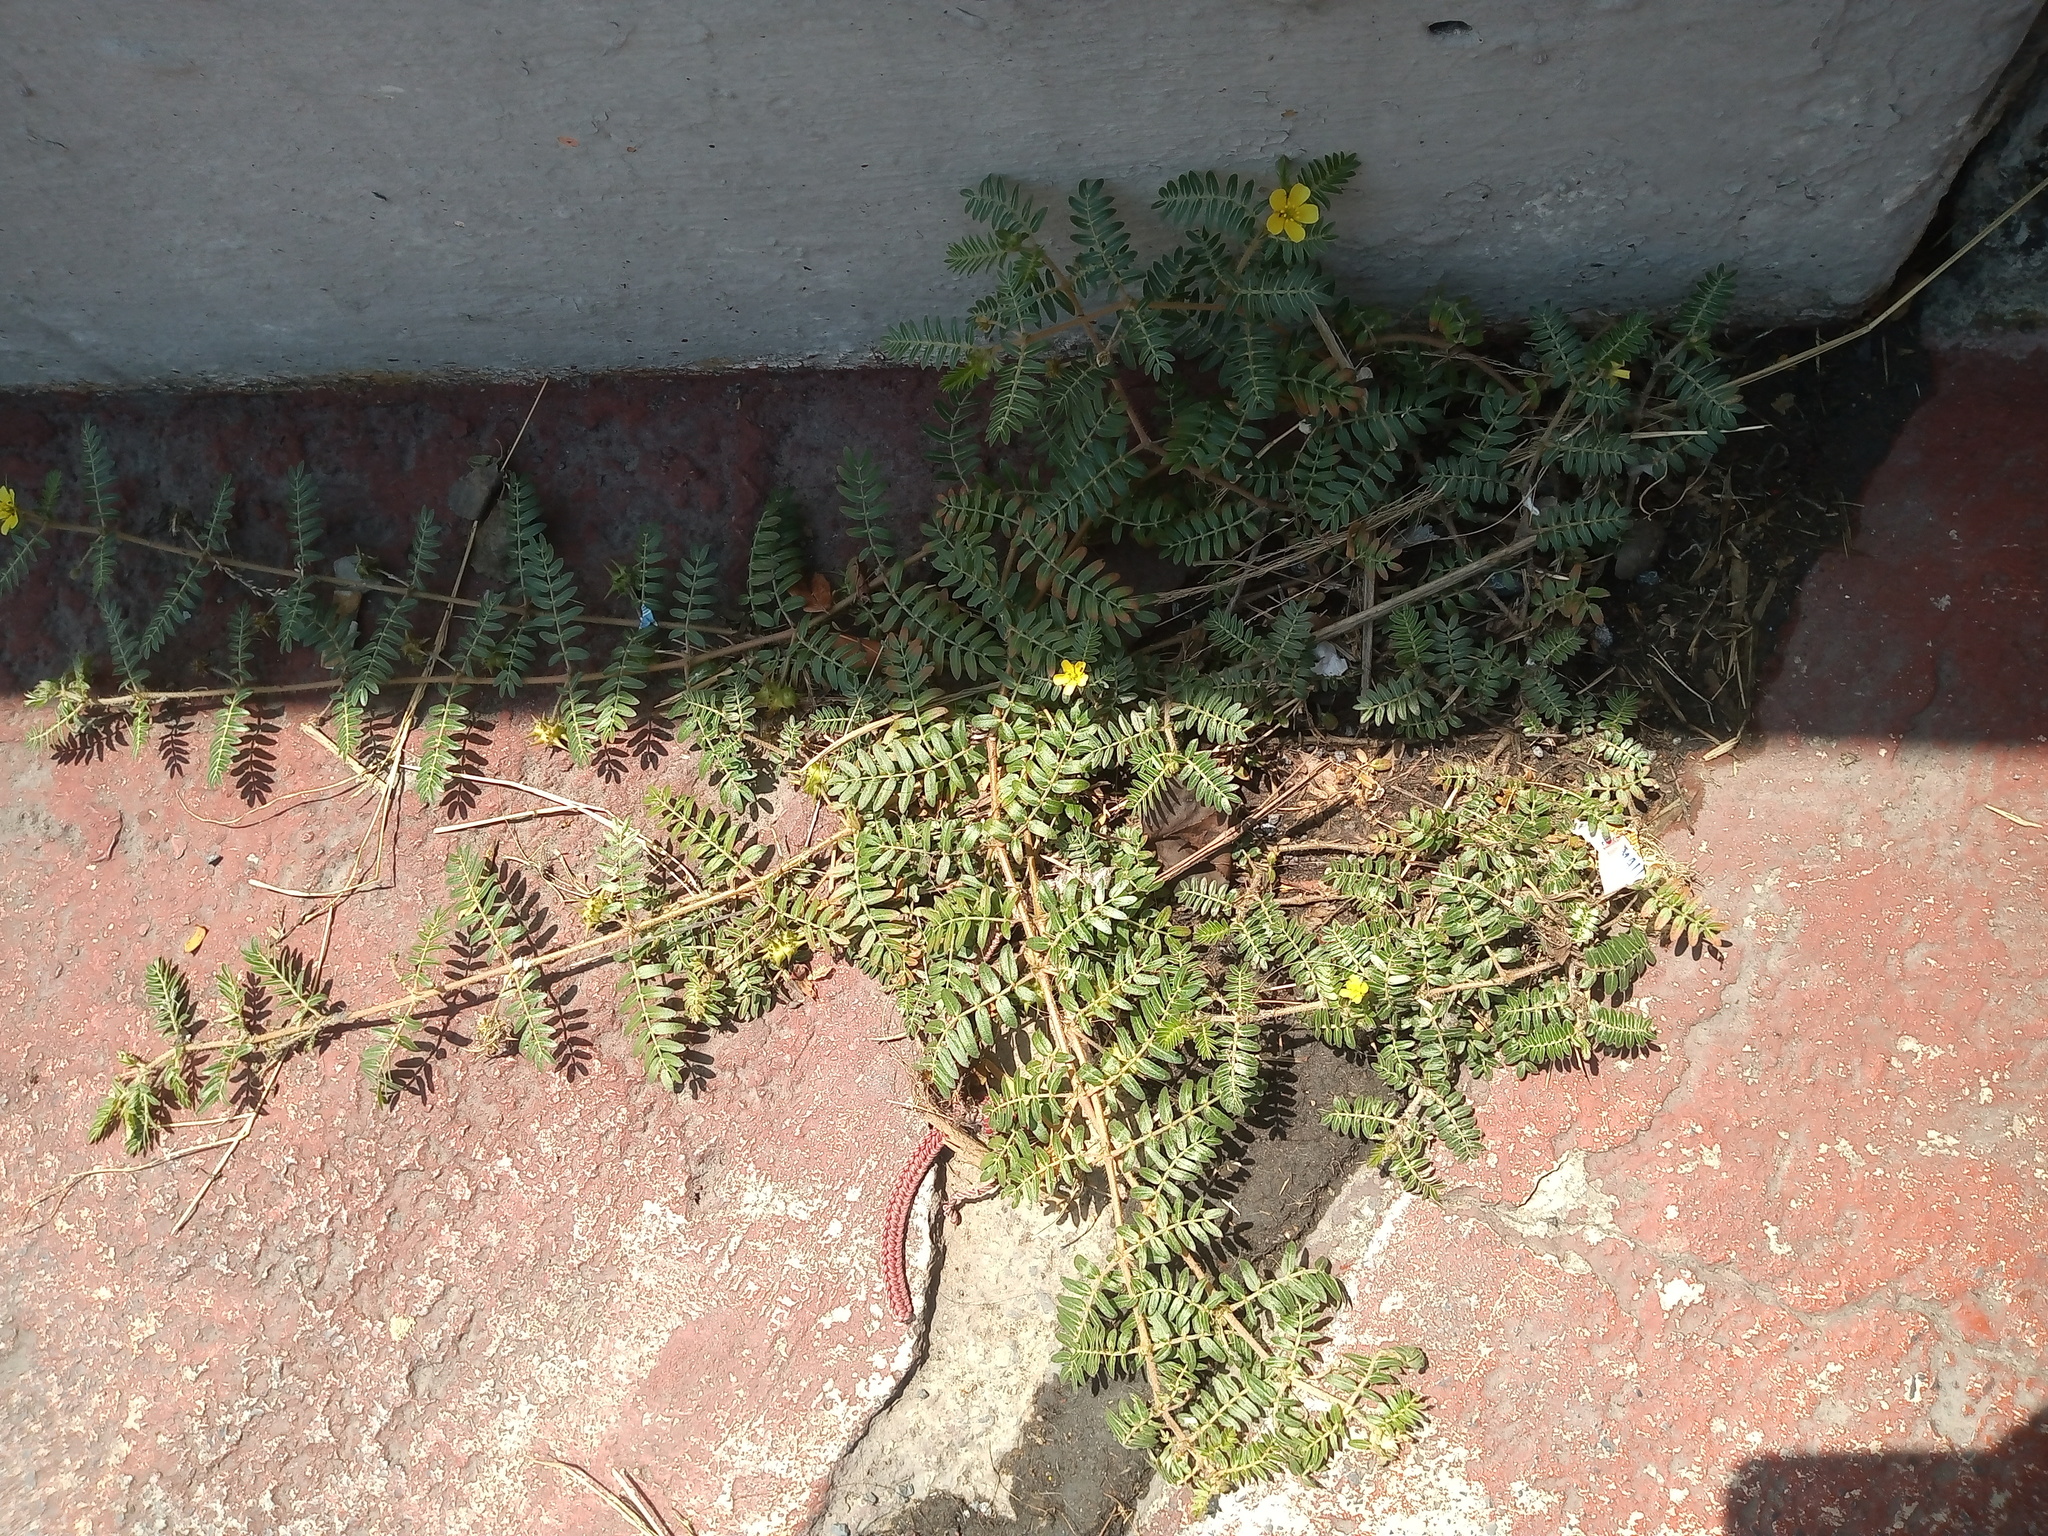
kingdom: Plantae
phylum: Tracheophyta
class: Magnoliopsida
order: Zygophyllales
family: Zygophyllaceae
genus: Tribulus
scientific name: Tribulus terrestris
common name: Puncturevine
